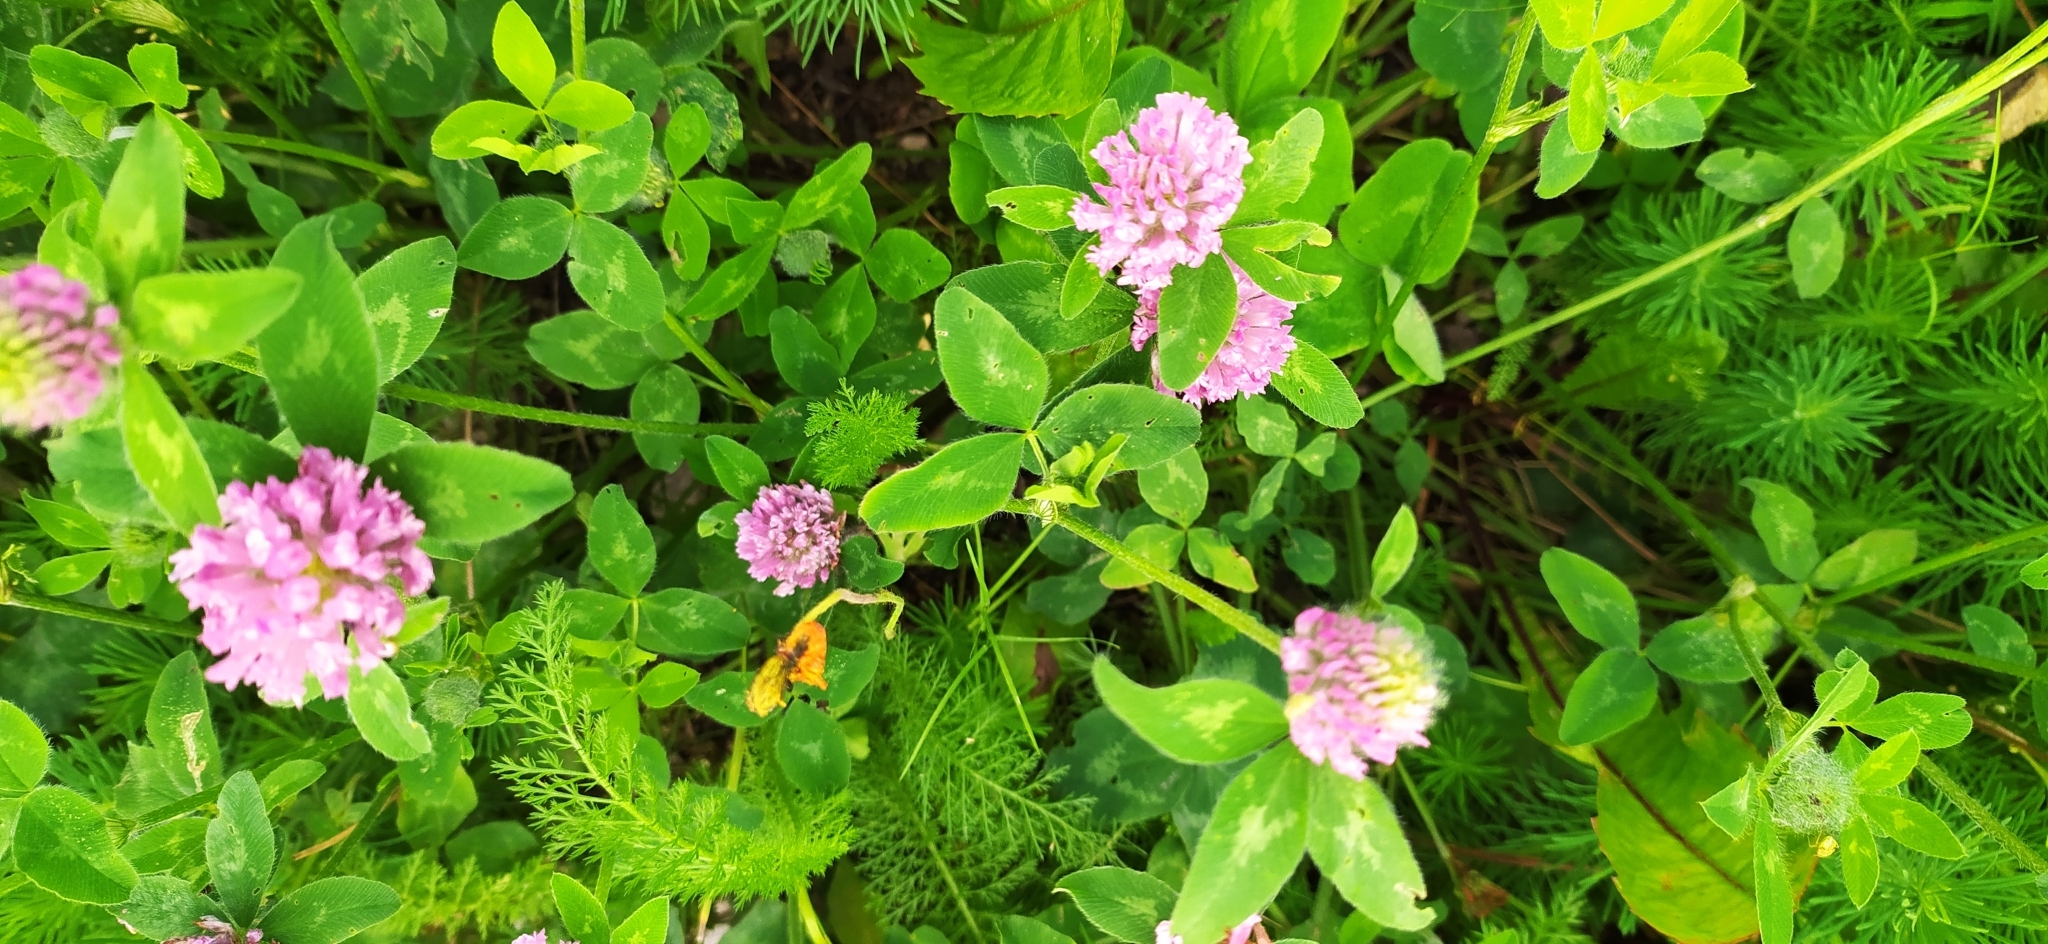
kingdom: Plantae
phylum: Tracheophyta
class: Magnoliopsida
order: Fabales
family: Fabaceae
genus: Trifolium
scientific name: Trifolium pratense
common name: Red clover
